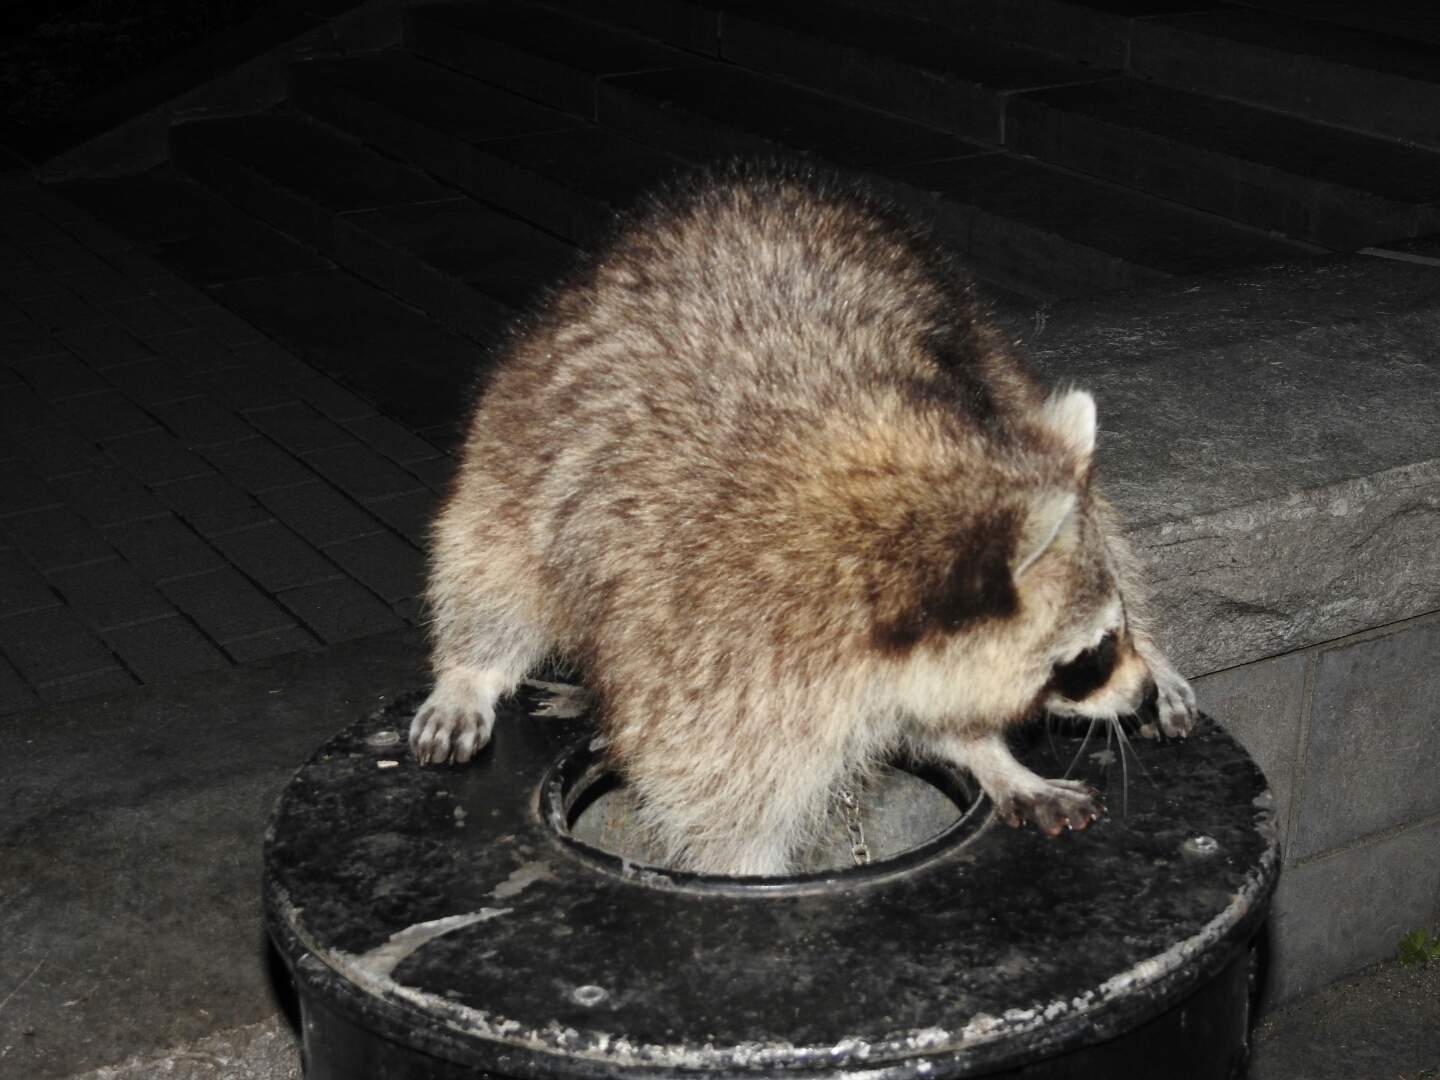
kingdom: Animalia
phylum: Chordata
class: Mammalia
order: Carnivora
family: Procyonidae
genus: Procyon
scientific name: Procyon lotor
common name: Raccoon
